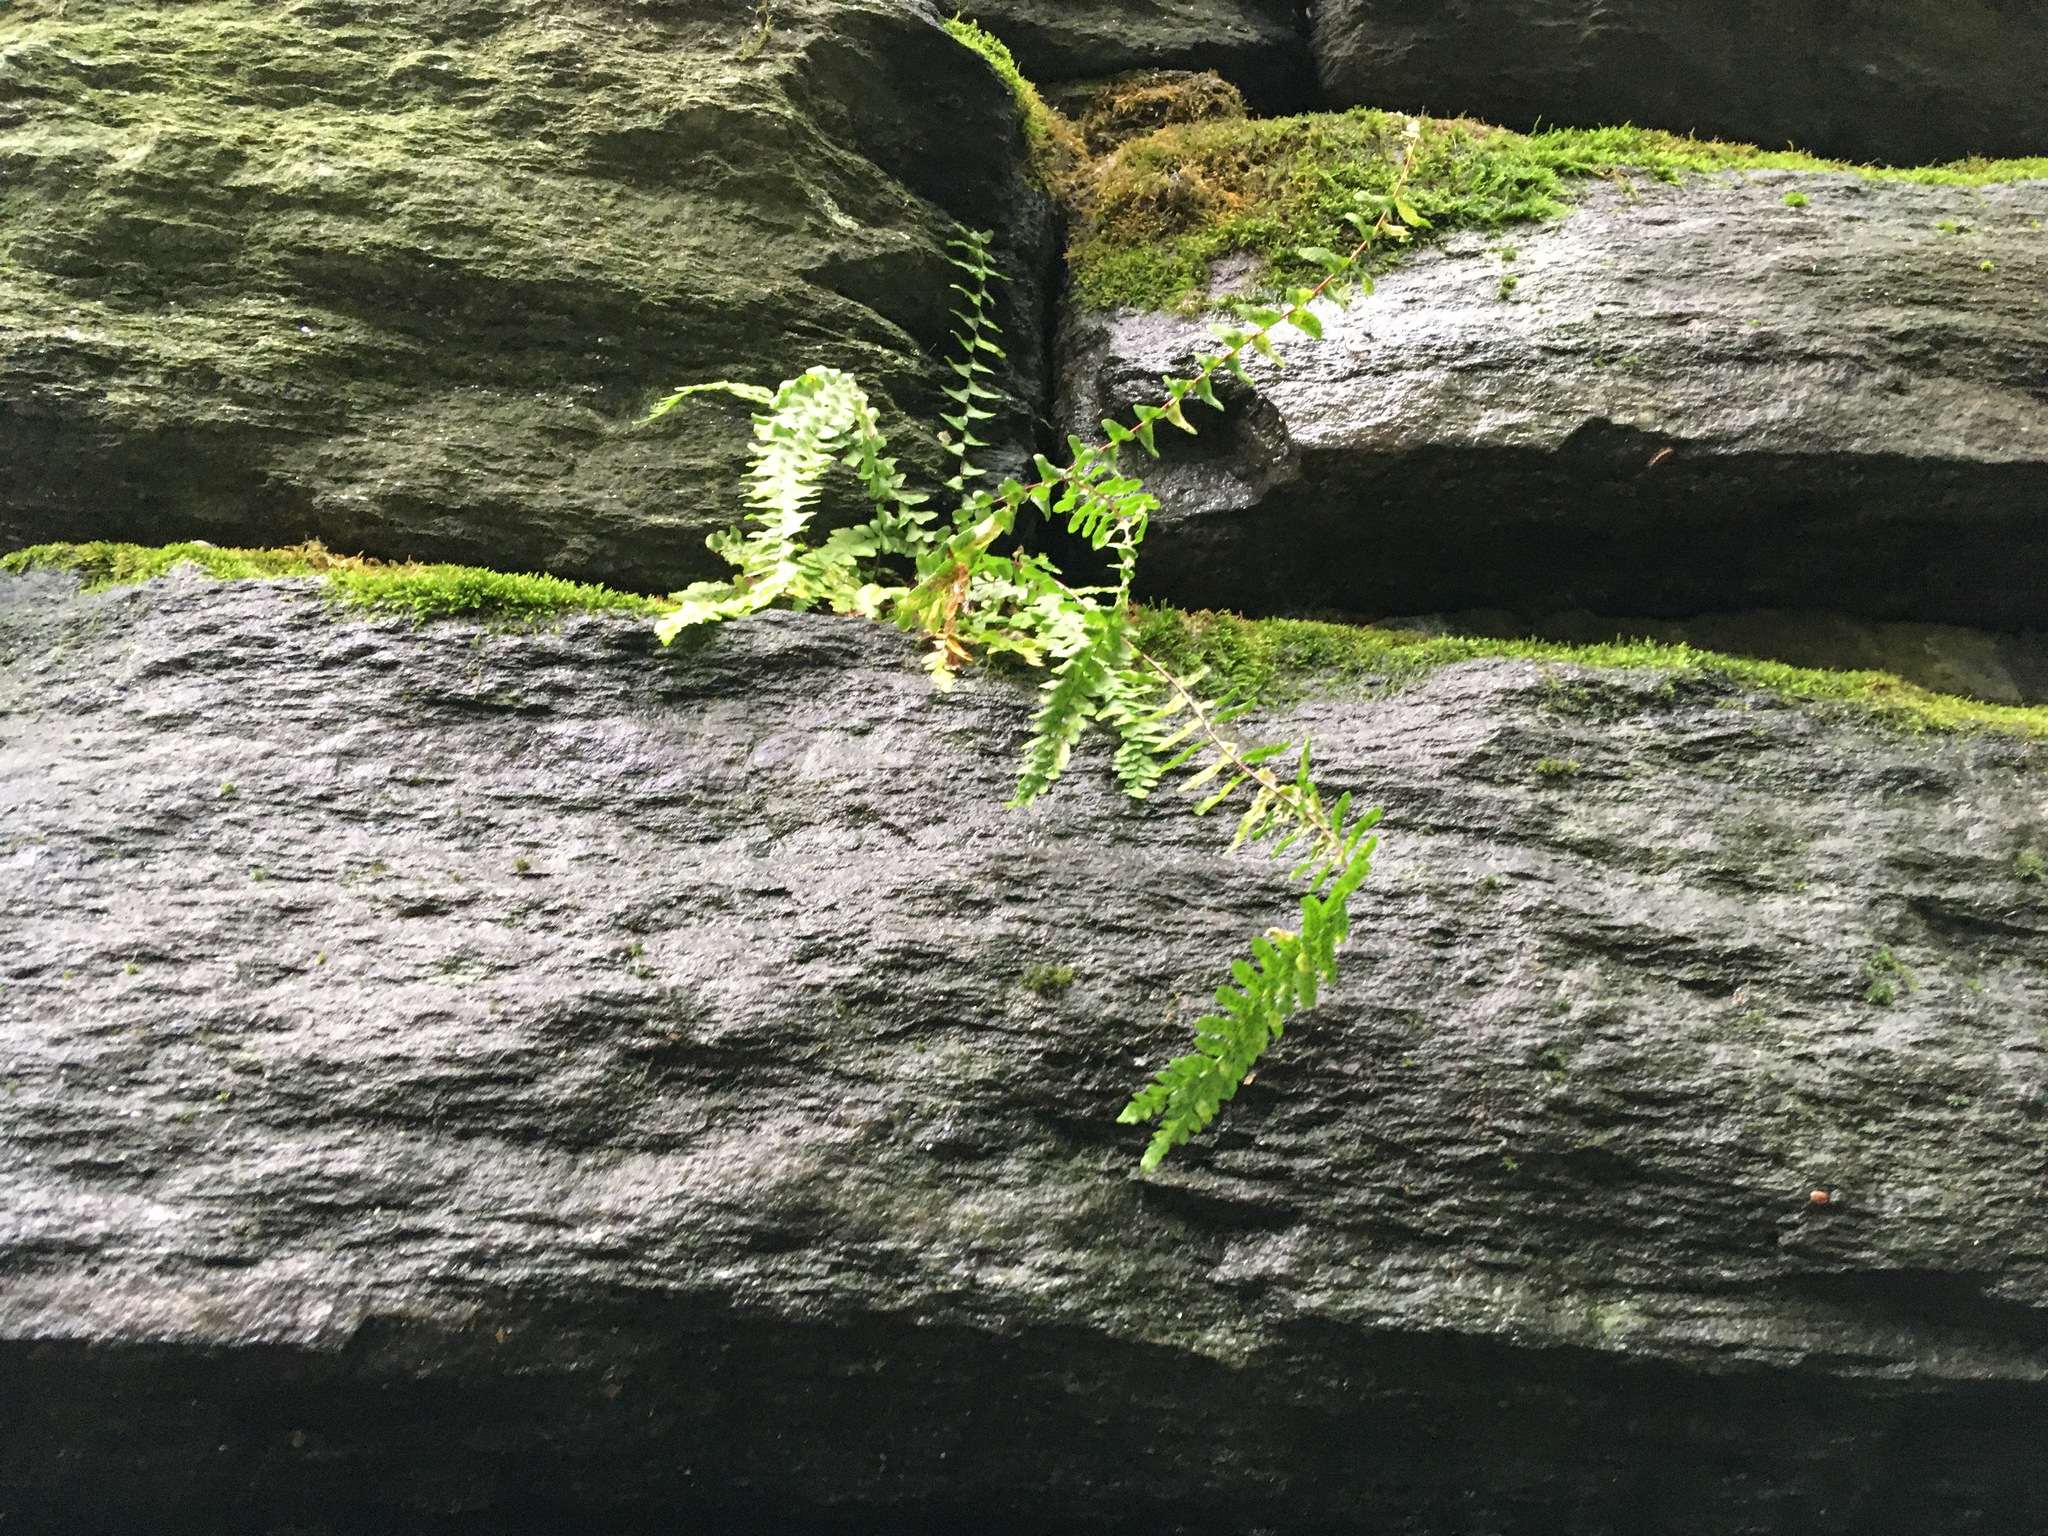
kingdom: Plantae
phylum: Tracheophyta
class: Polypodiopsida
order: Polypodiales
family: Aspleniaceae
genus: Asplenium
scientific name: Asplenium platyneuron
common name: Ebony spleenwort
